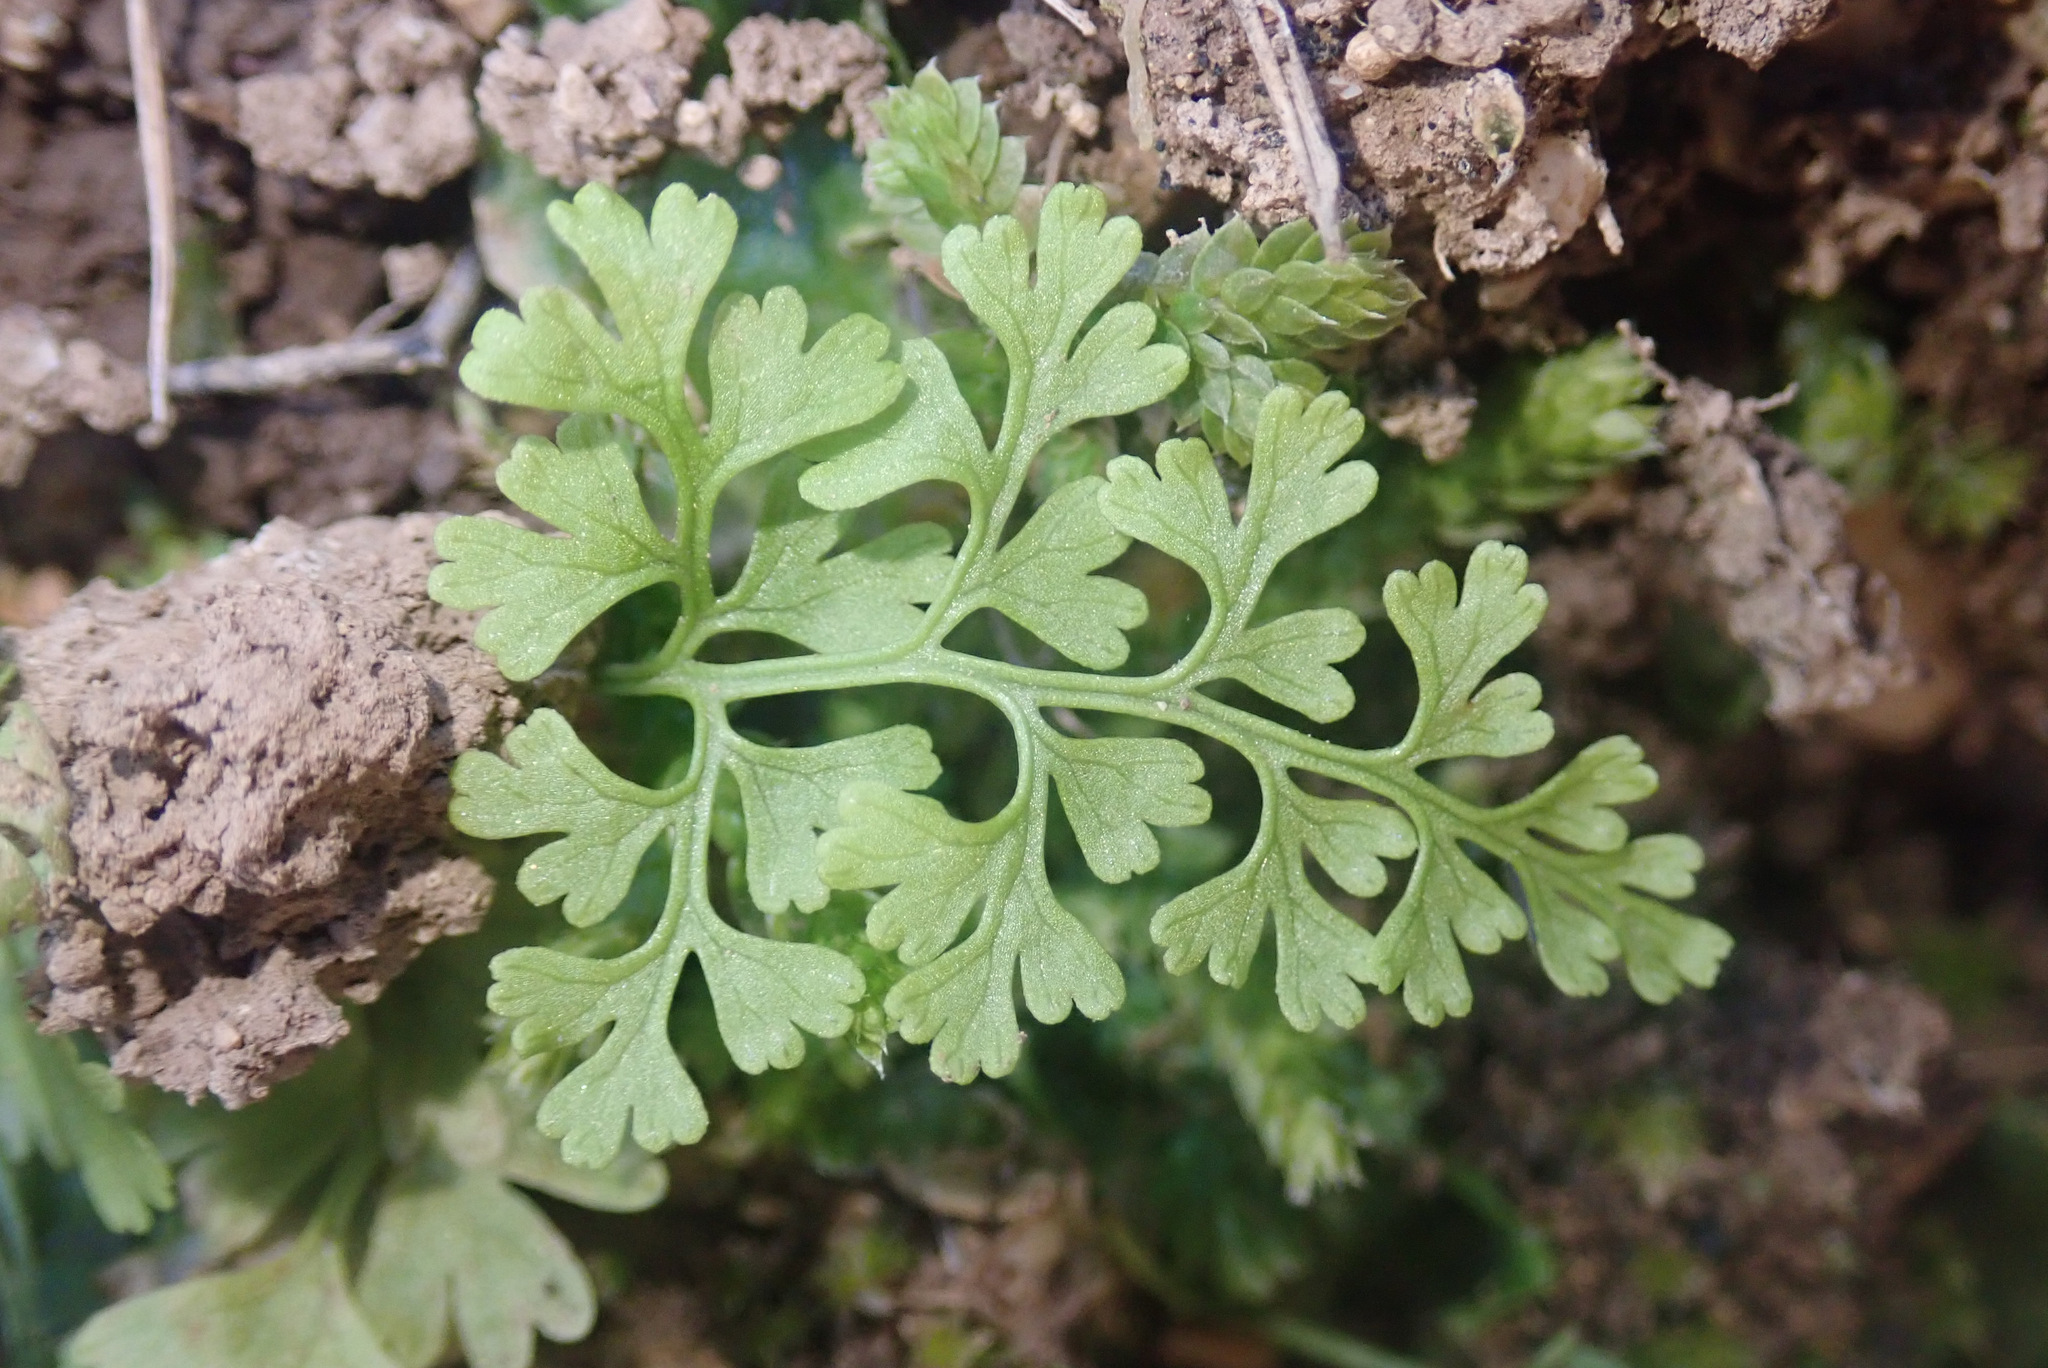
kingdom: Plantae
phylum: Tracheophyta
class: Polypodiopsida
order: Polypodiales
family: Pteridaceae
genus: Anogramma
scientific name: Anogramma leptophylla
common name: Jersey fern
